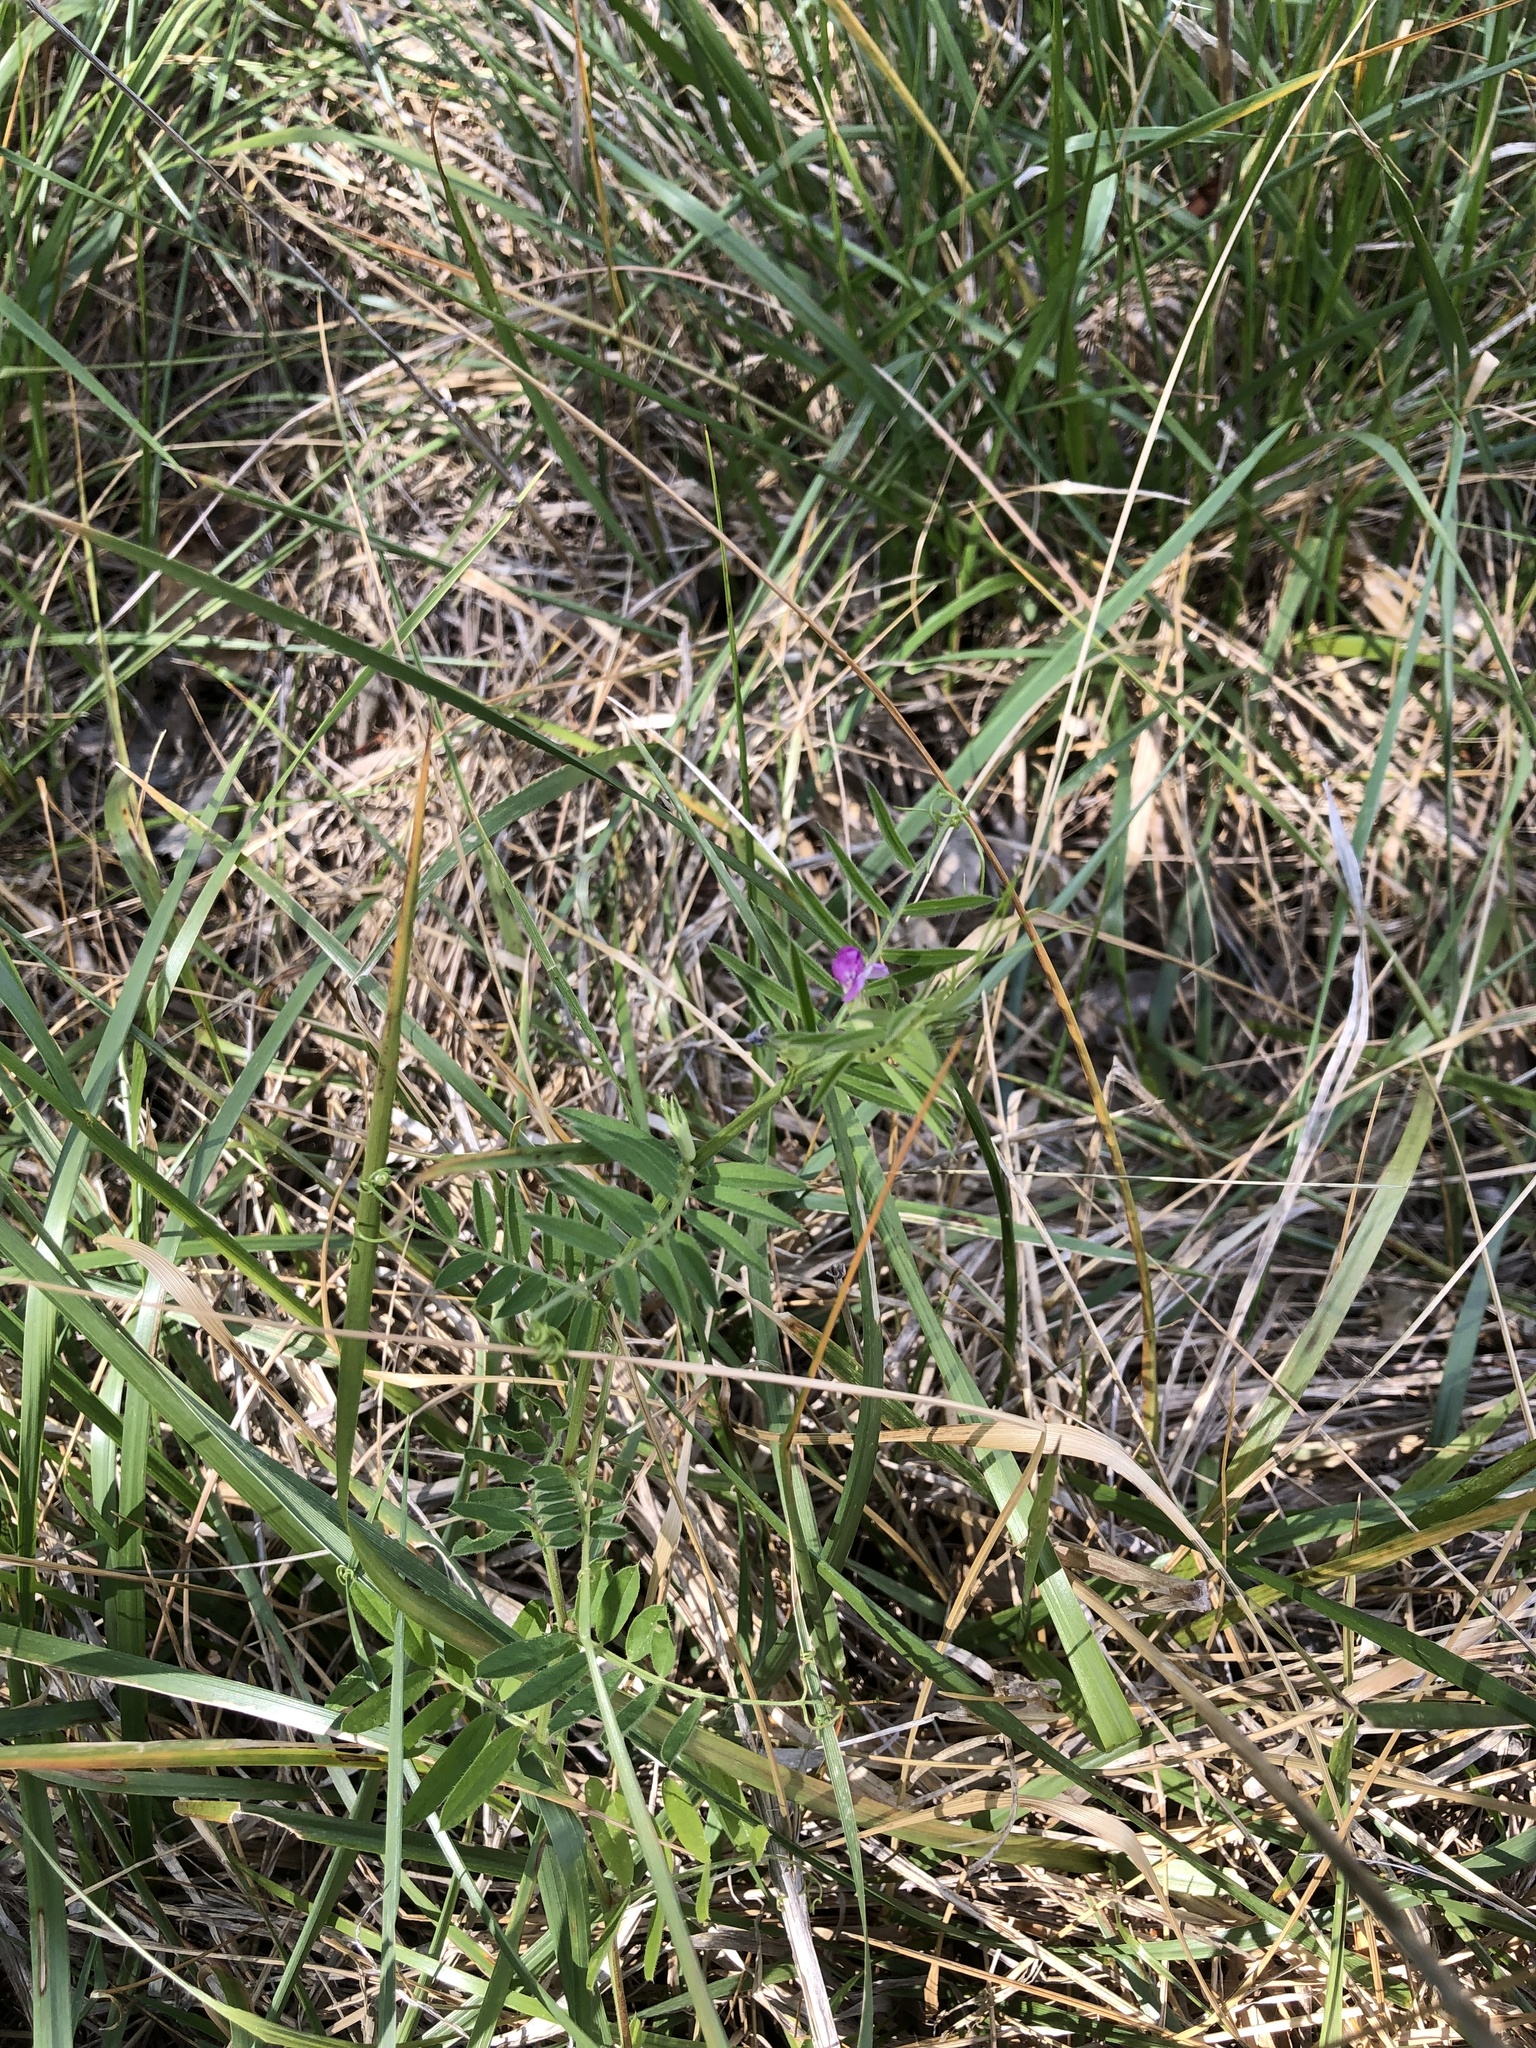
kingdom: Plantae
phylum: Tracheophyta
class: Magnoliopsida
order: Fabales
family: Fabaceae
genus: Vicia
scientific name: Vicia sativa
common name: Garden vetch
